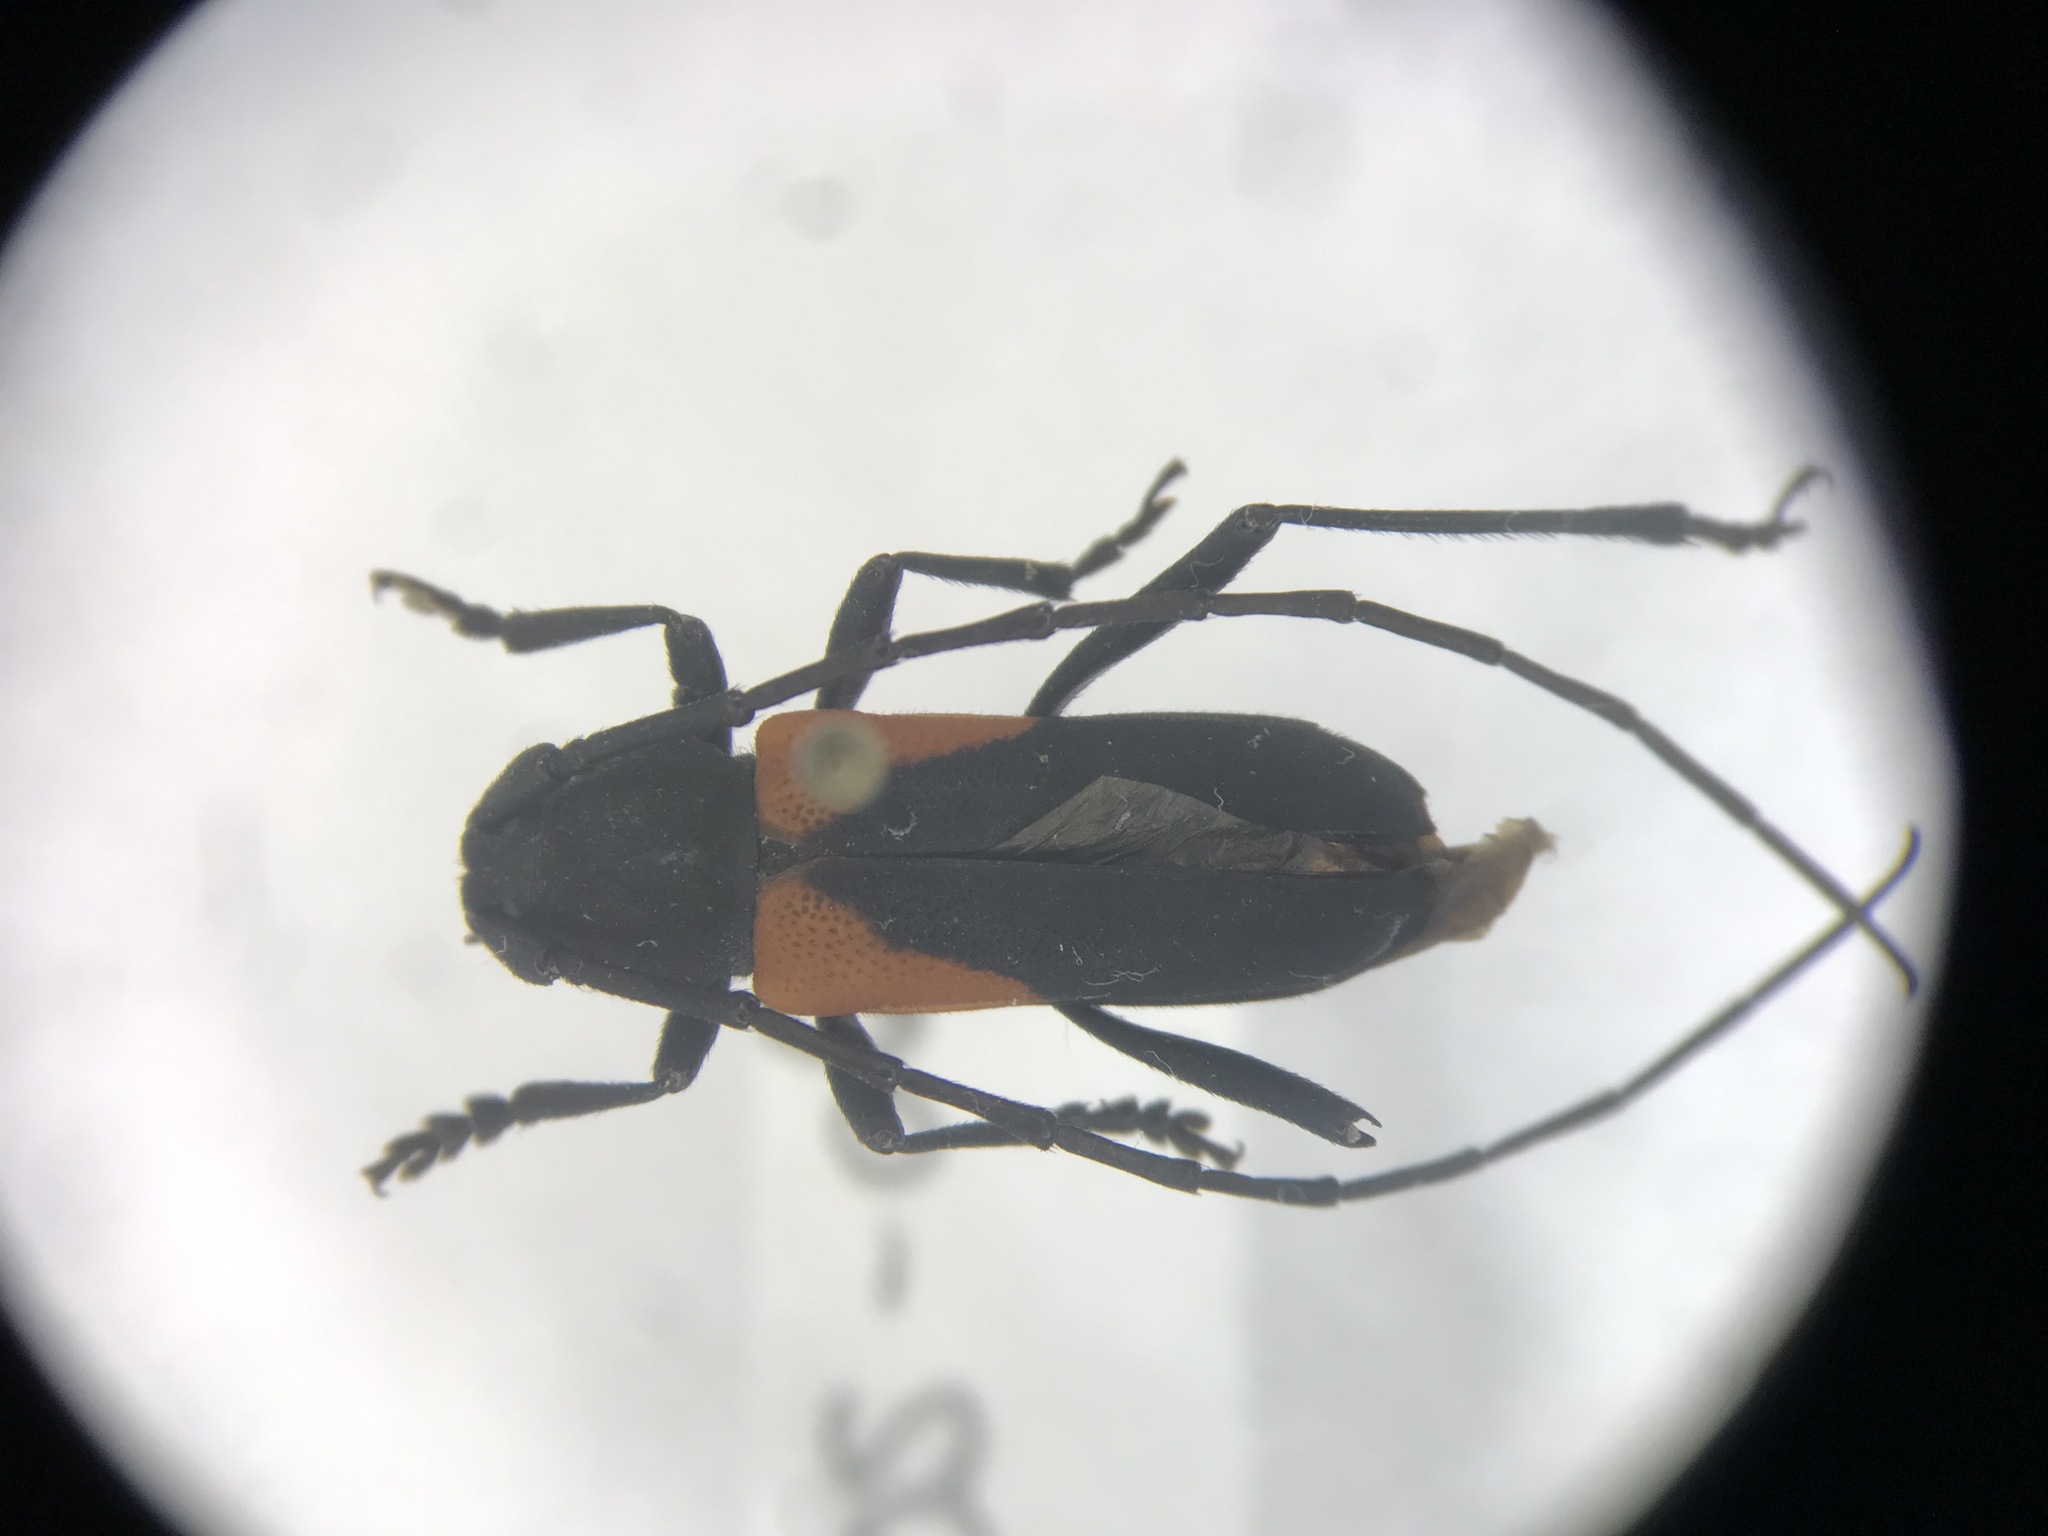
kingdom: Animalia
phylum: Arthropoda
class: Insecta
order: Coleoptera
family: Cerambycidae
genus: Purpuricenus
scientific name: Purpuricenus humeralis
